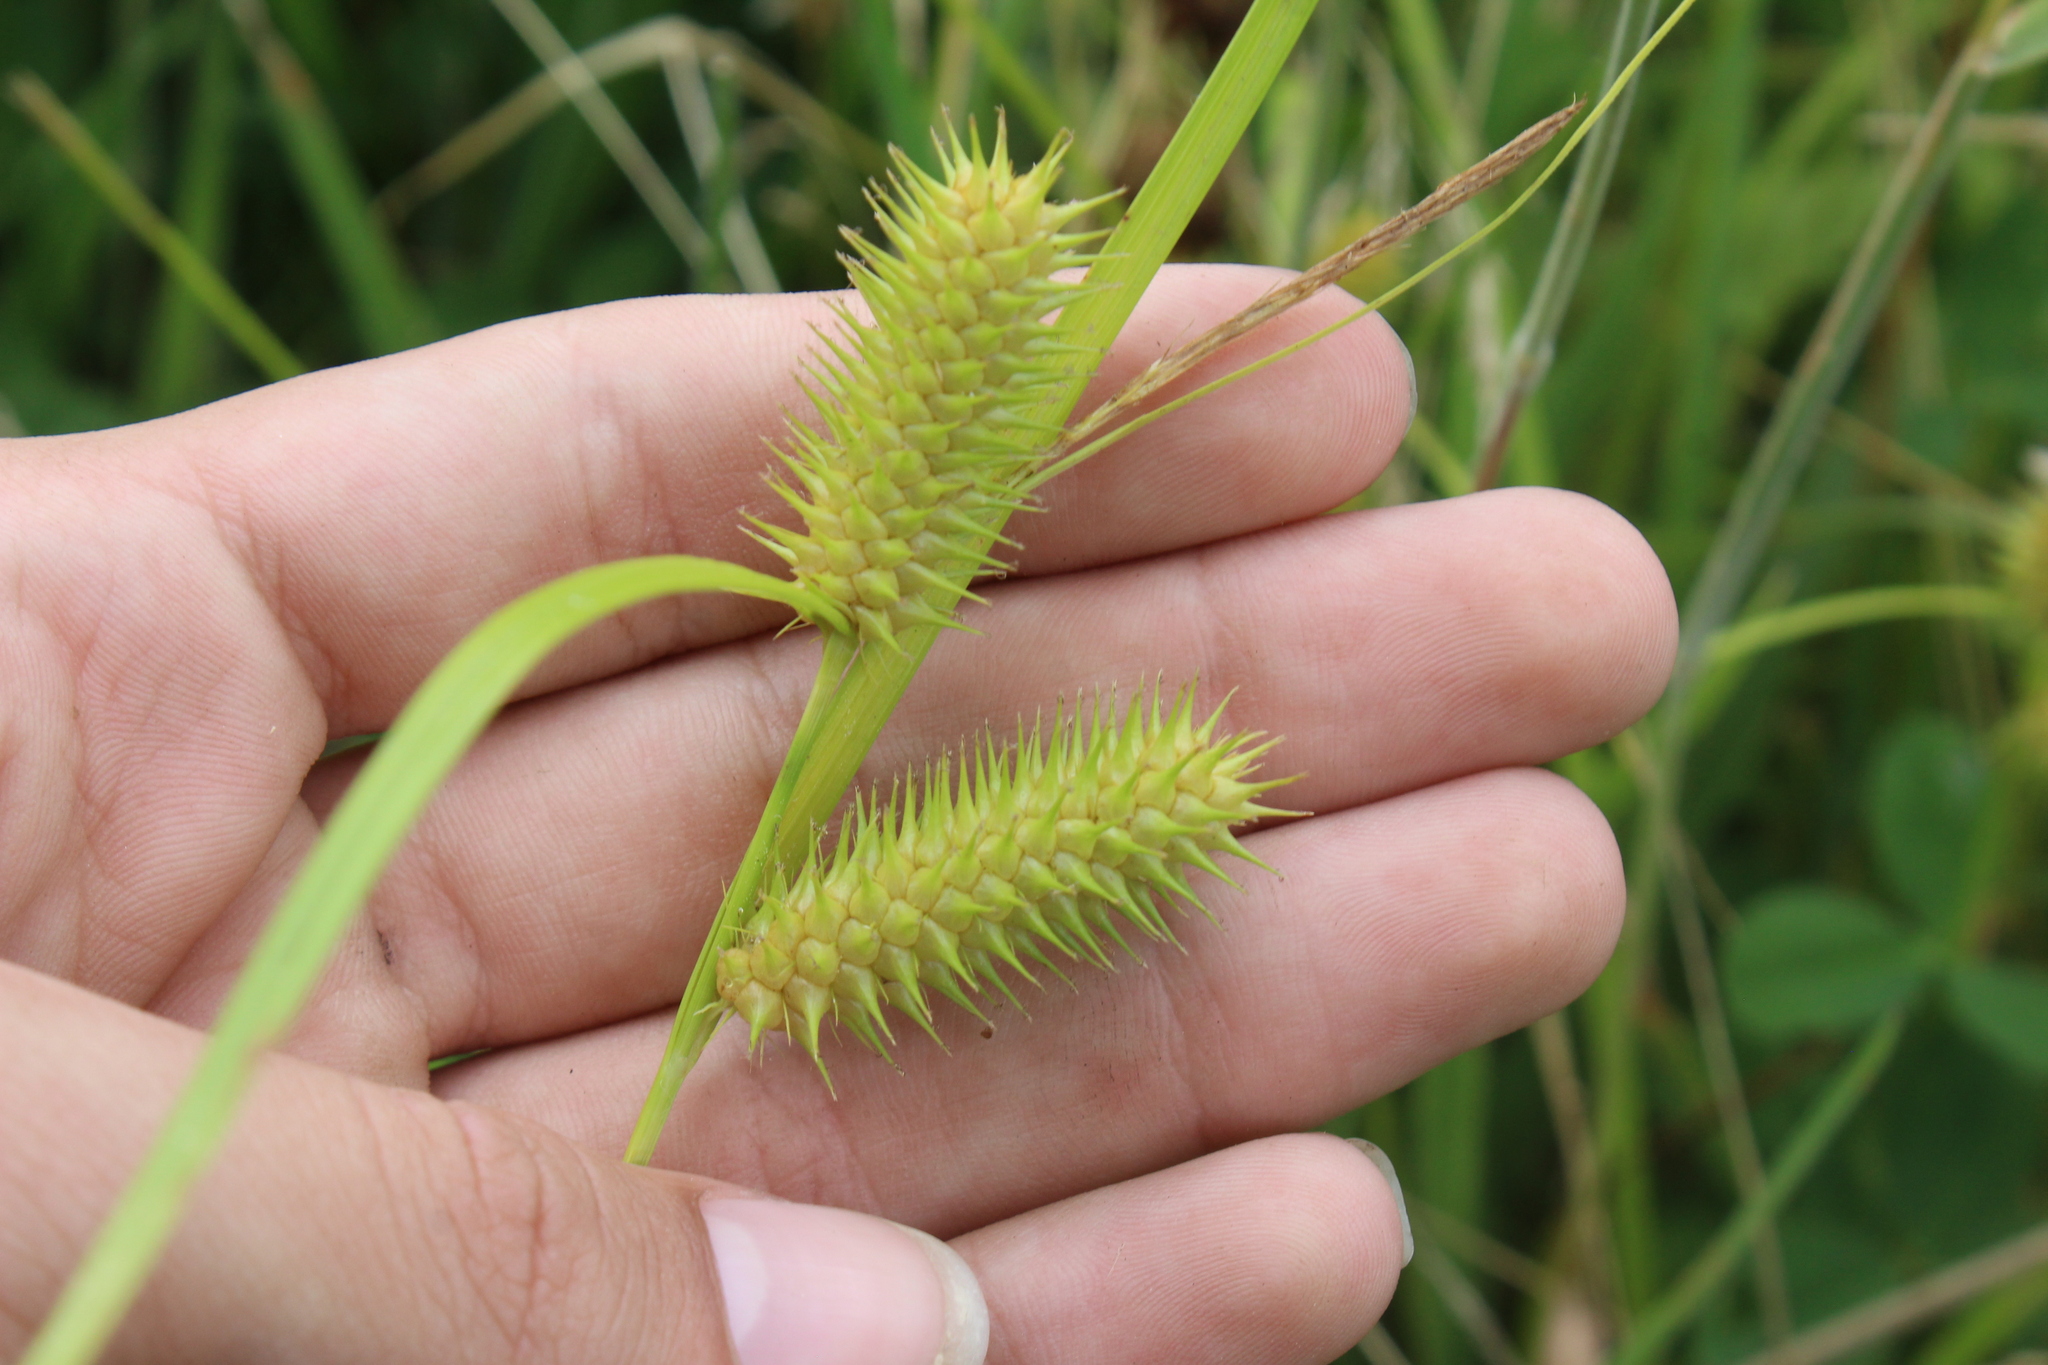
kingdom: Plantae
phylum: Tracheophyta
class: Liliopsida
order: Poales
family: Cyperaceae
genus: Carex
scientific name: Carex lurida
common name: Sallow sedge
